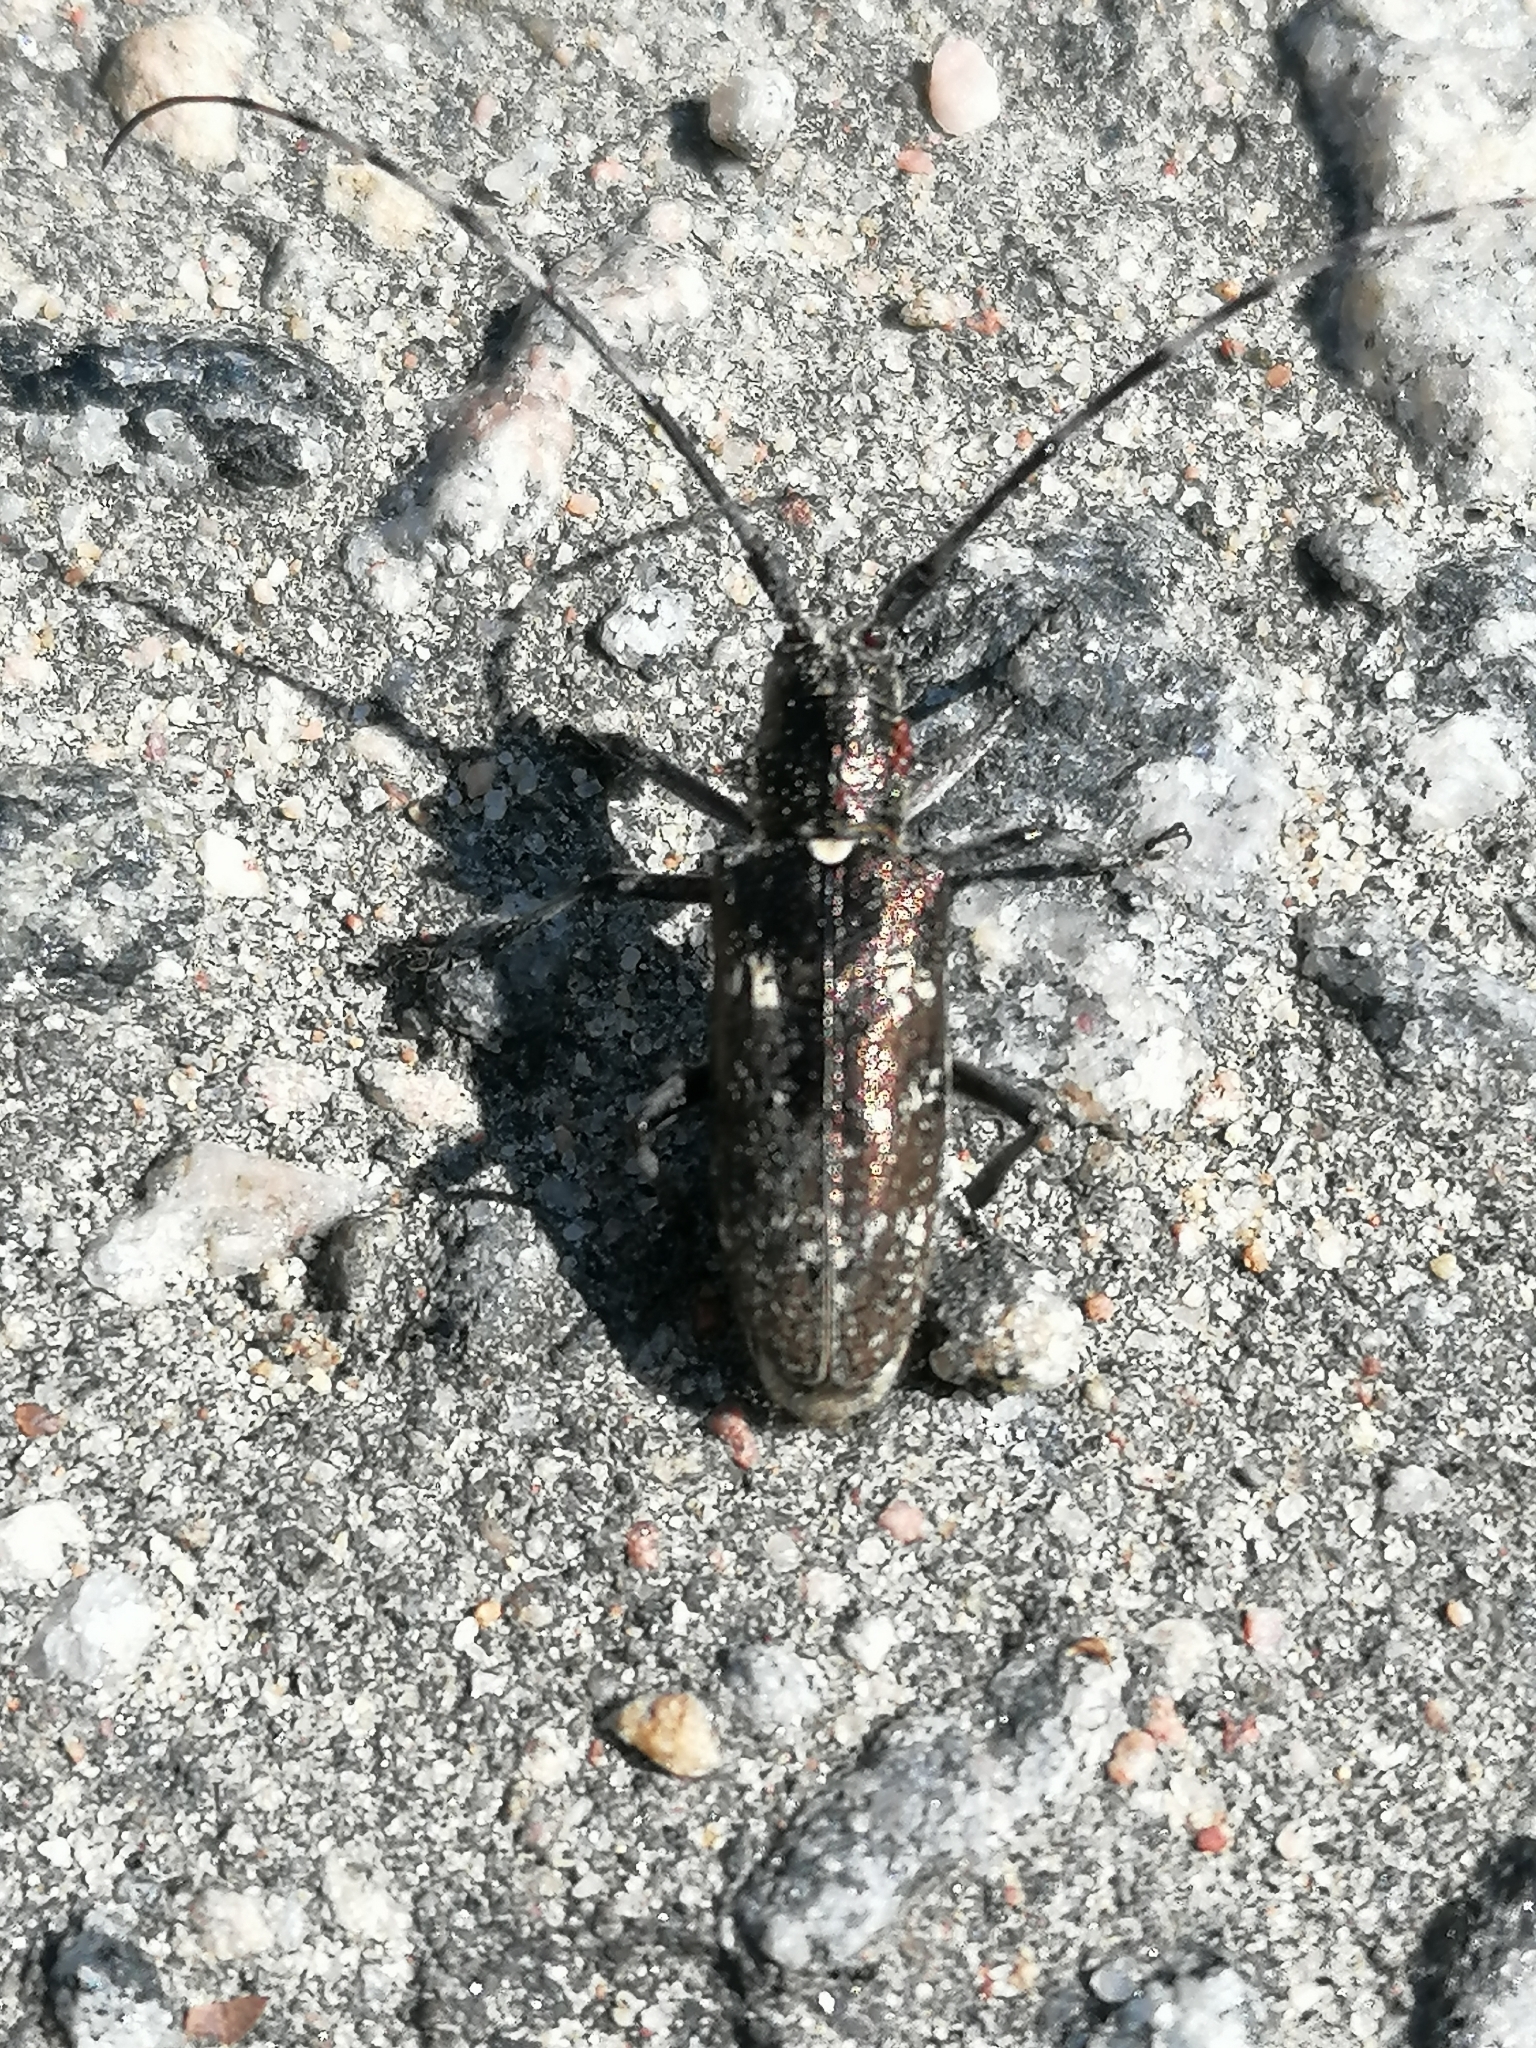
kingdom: Animalia
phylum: Arthropoda
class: Insecta
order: Coleoptera
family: Cerambycidae
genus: Monochamus
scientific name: Monochamus scutellatus
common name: White-spotted sawyer beetle
